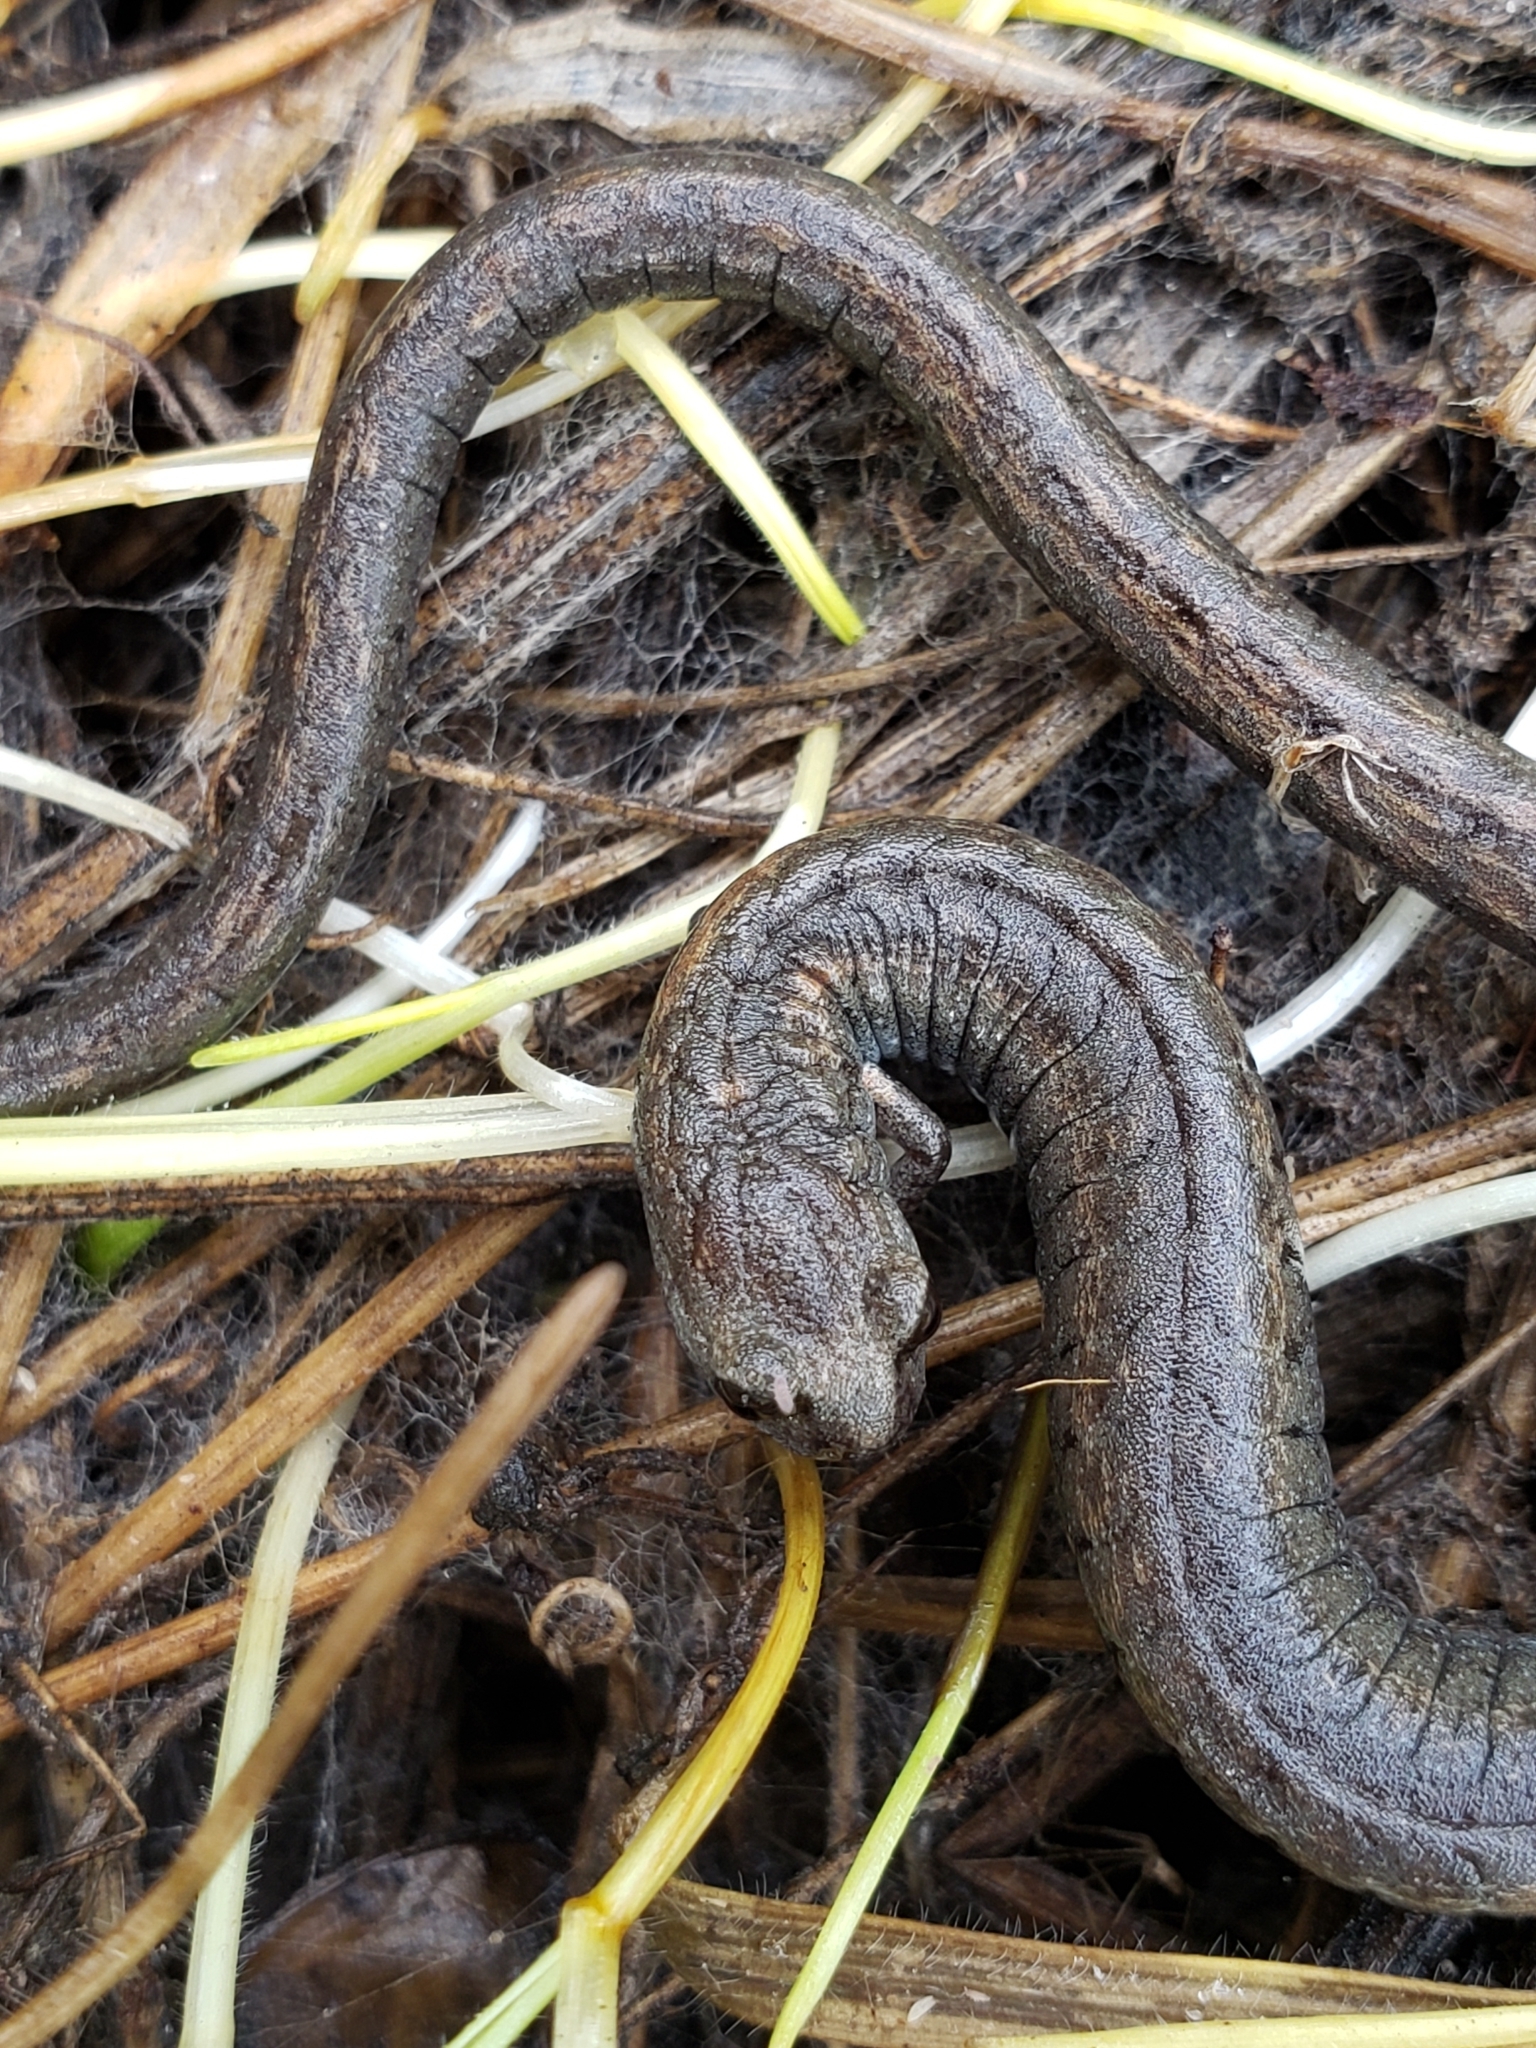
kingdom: Animalia
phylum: Chordata
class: Amphibia
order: Caudata
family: Plethodontidae
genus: Batrachoseps
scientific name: Batrachoseps attenuatus
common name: California slender salamander
